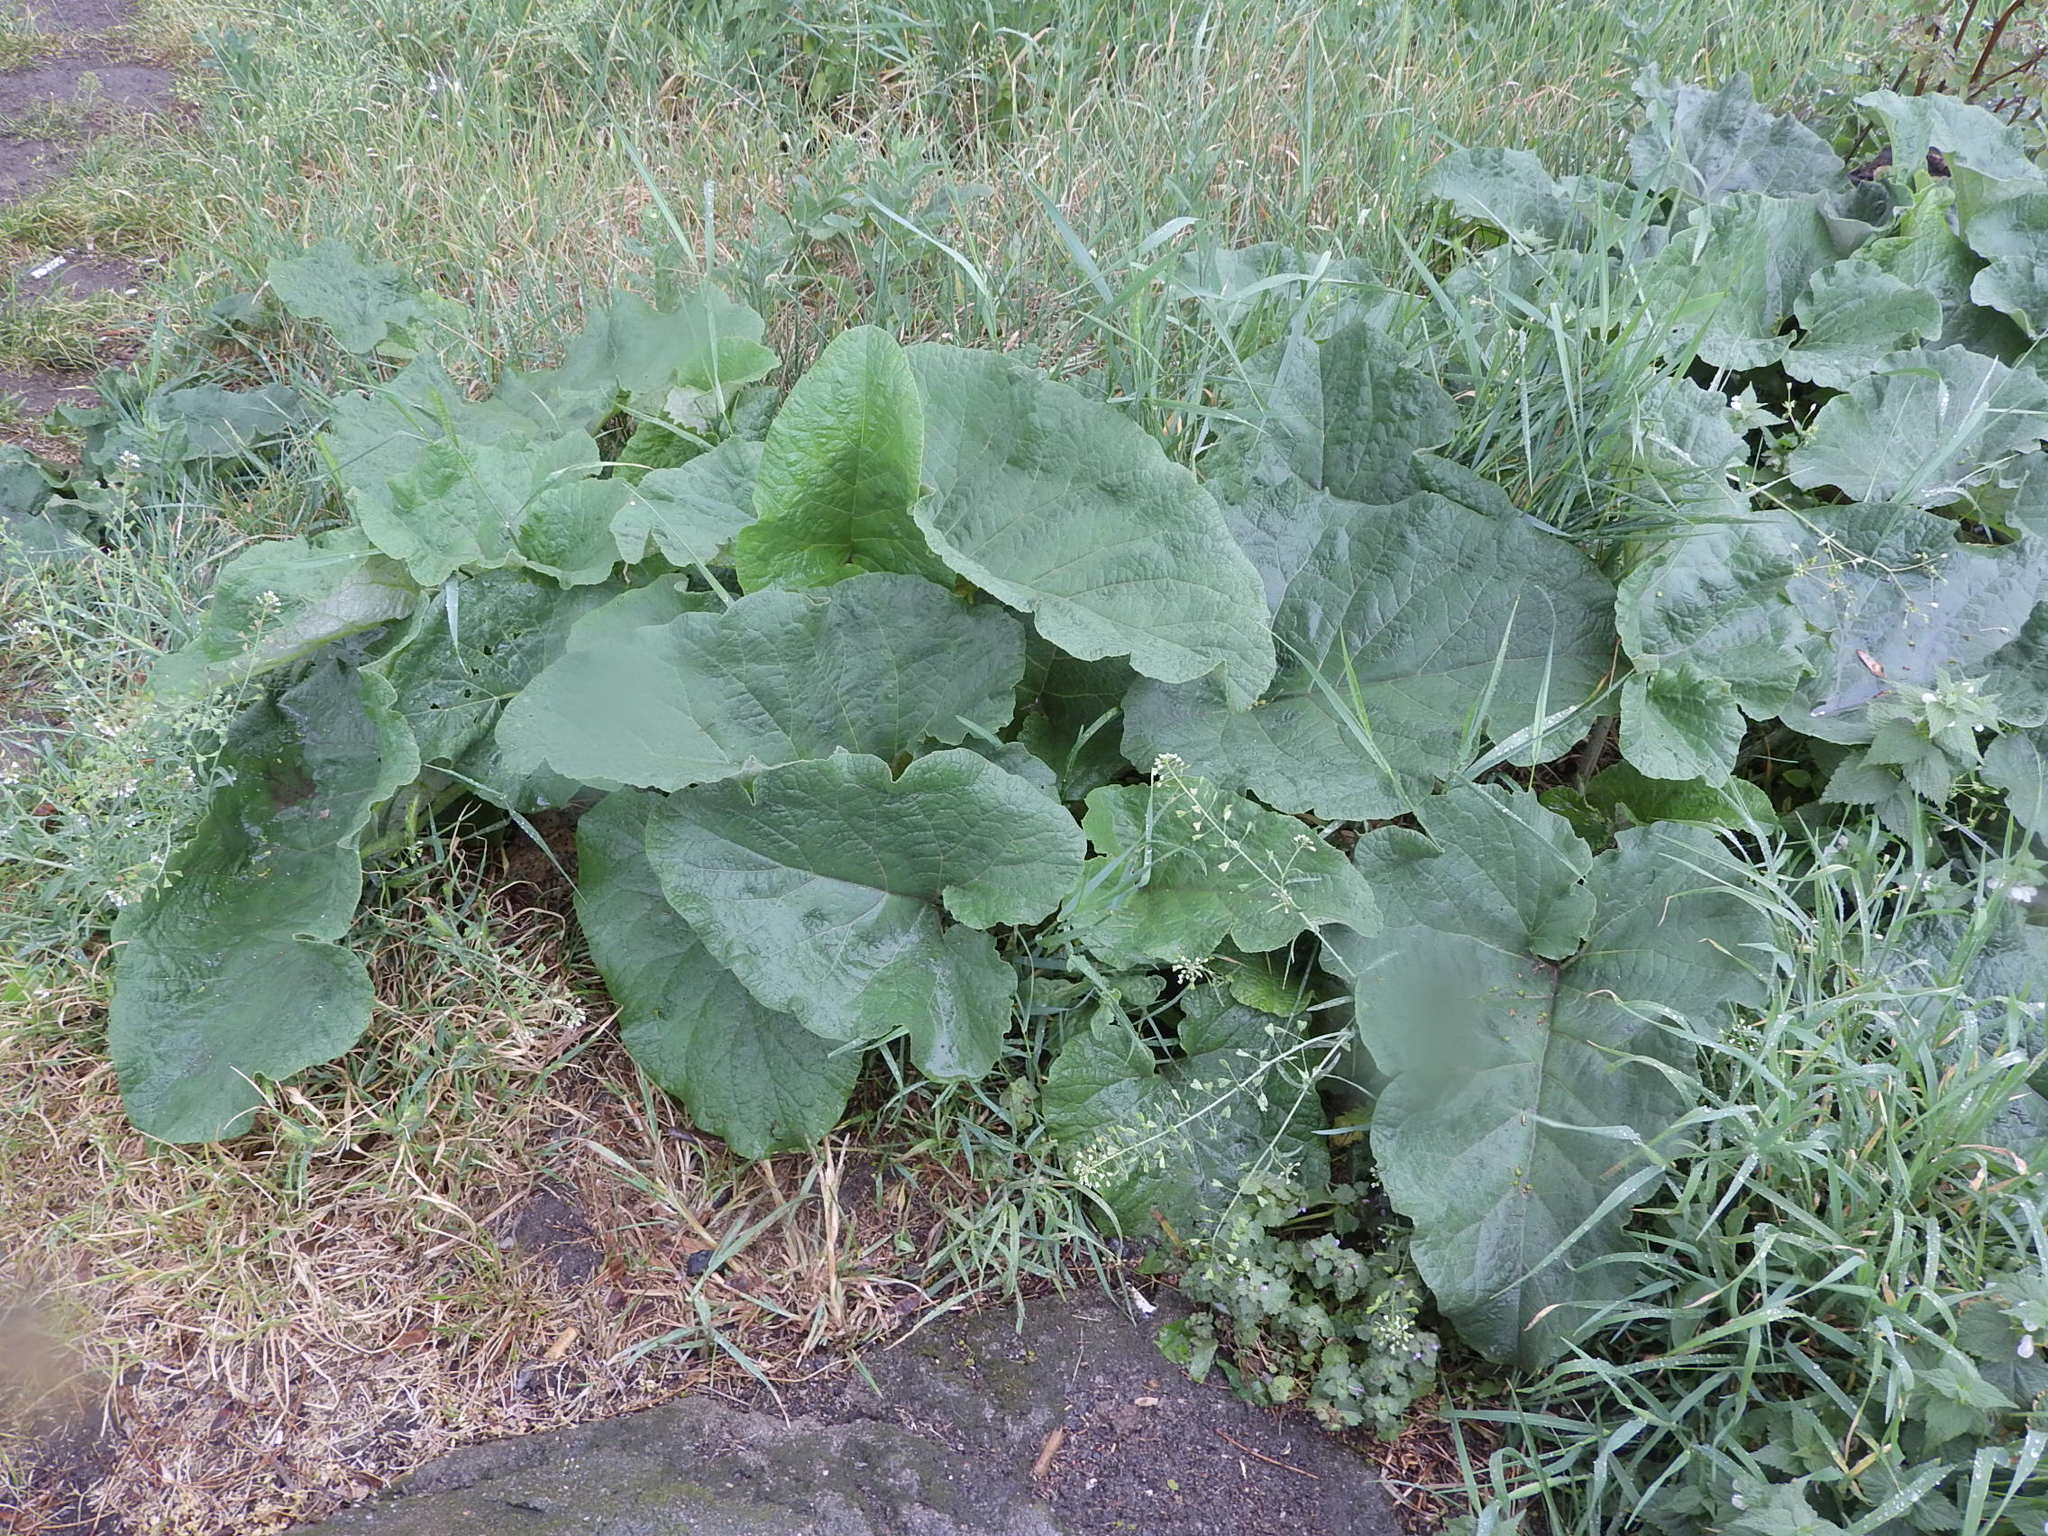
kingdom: Plantae
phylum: Tracheophyta
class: Magnoliopsida
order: Asterales
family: Asteraceae
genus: Arctium
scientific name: Arctium
